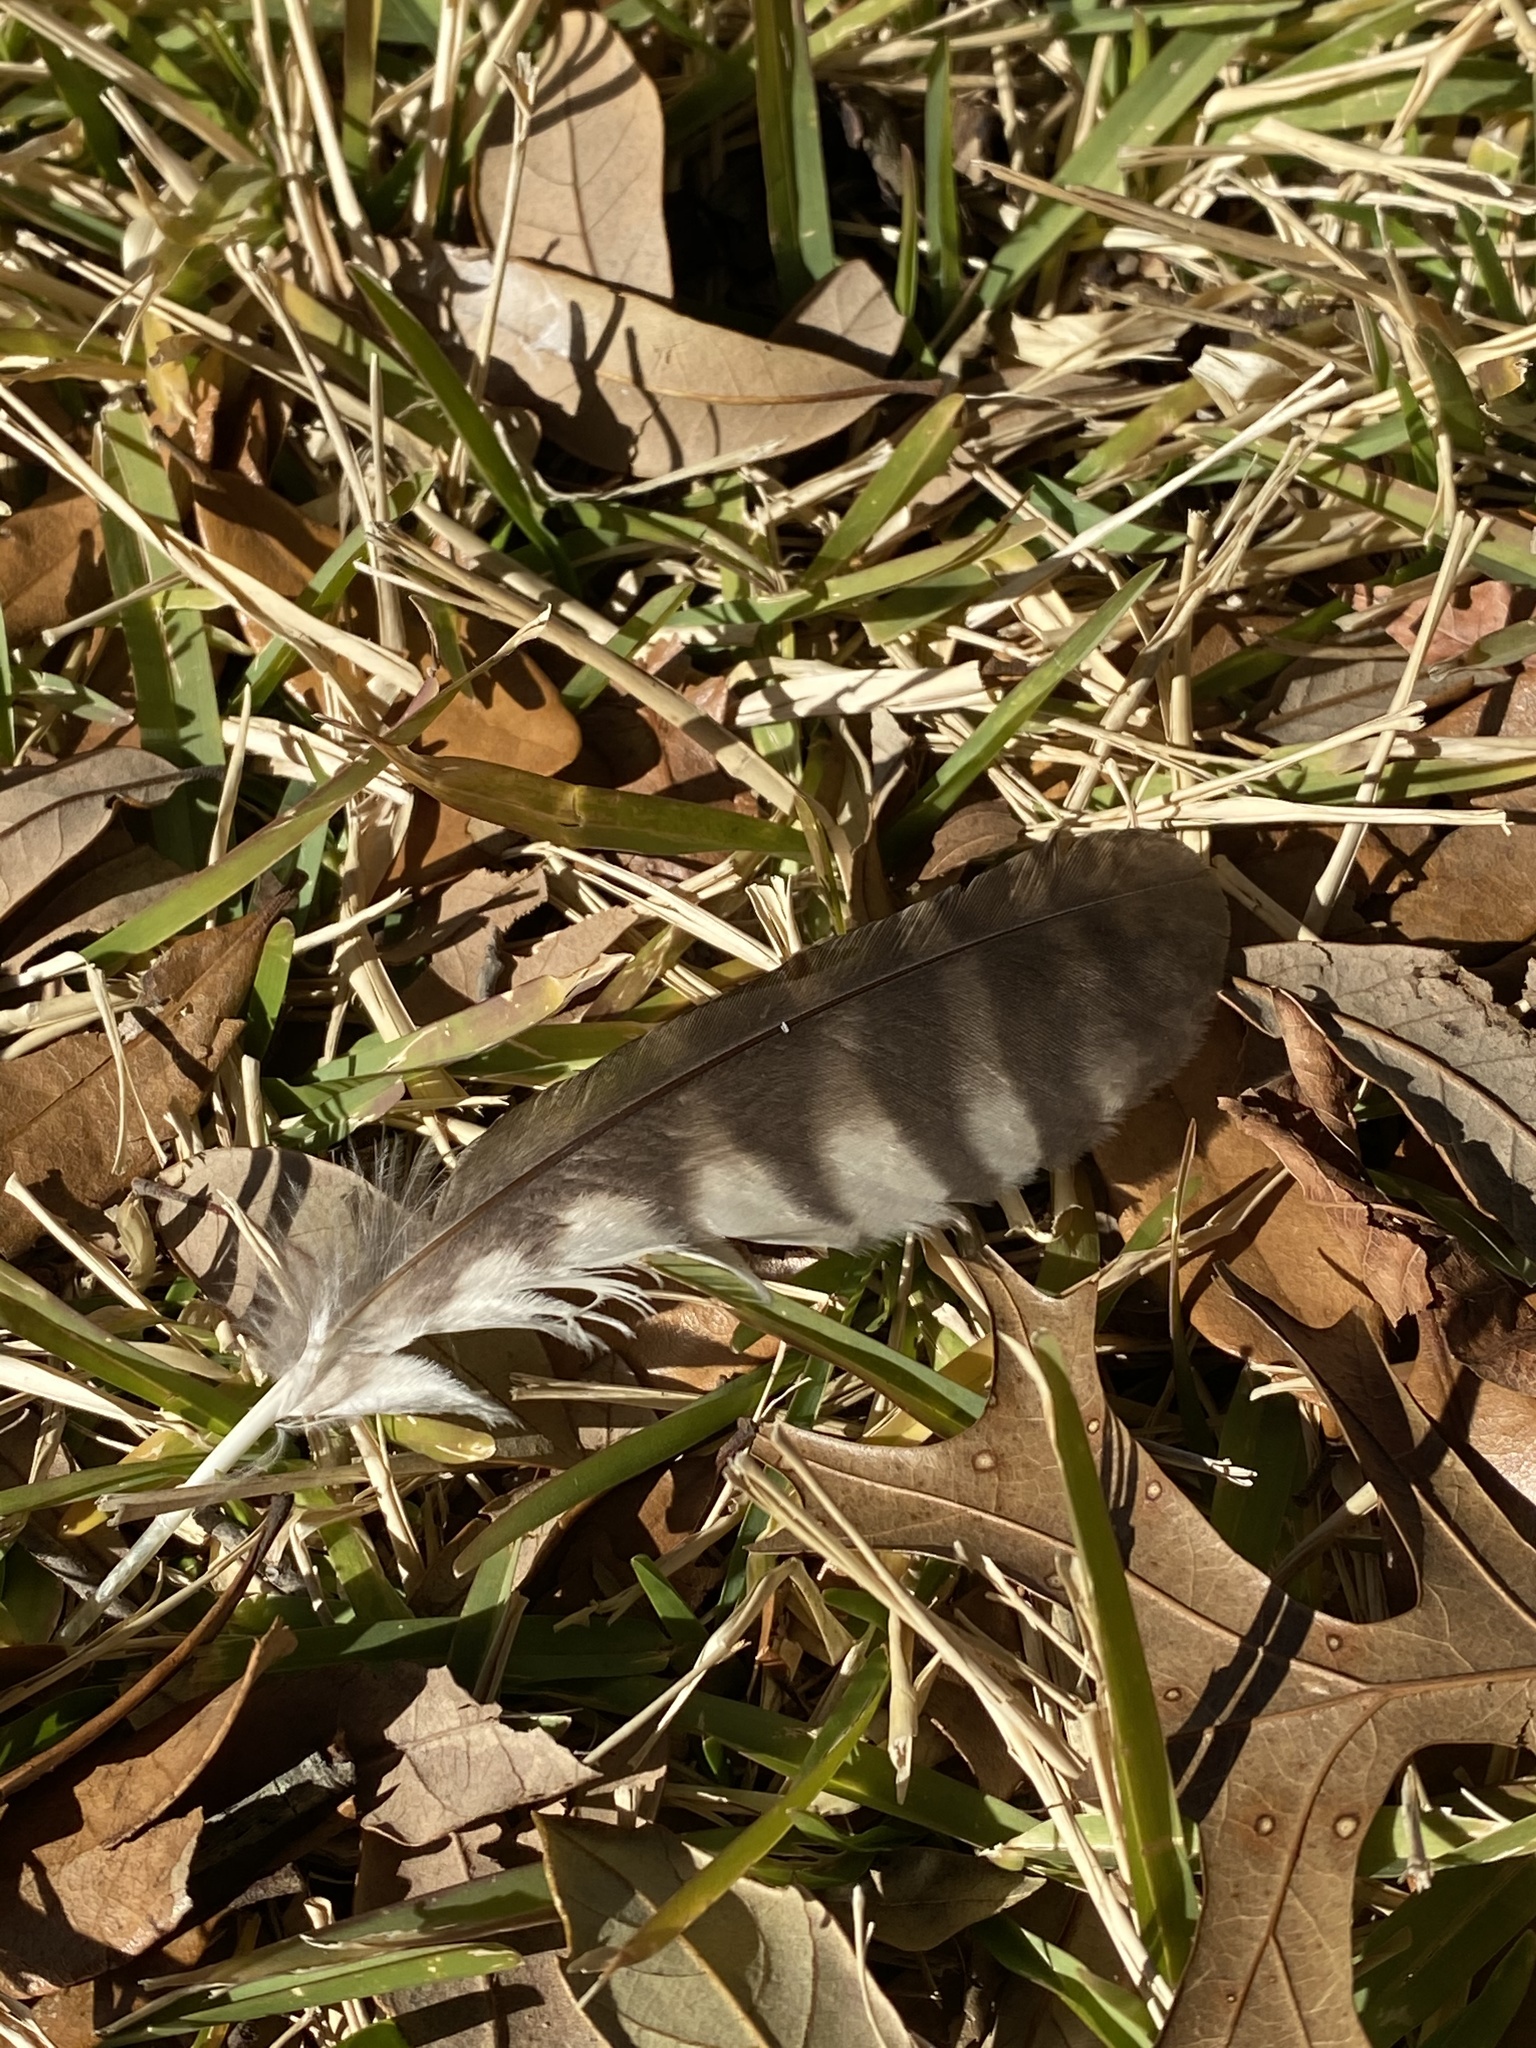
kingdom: Animalia
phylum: Chordata
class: Aves
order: Strigiformes
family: Strigidae
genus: Megascops
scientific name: Megascops asio
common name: Eastern screech-owl
